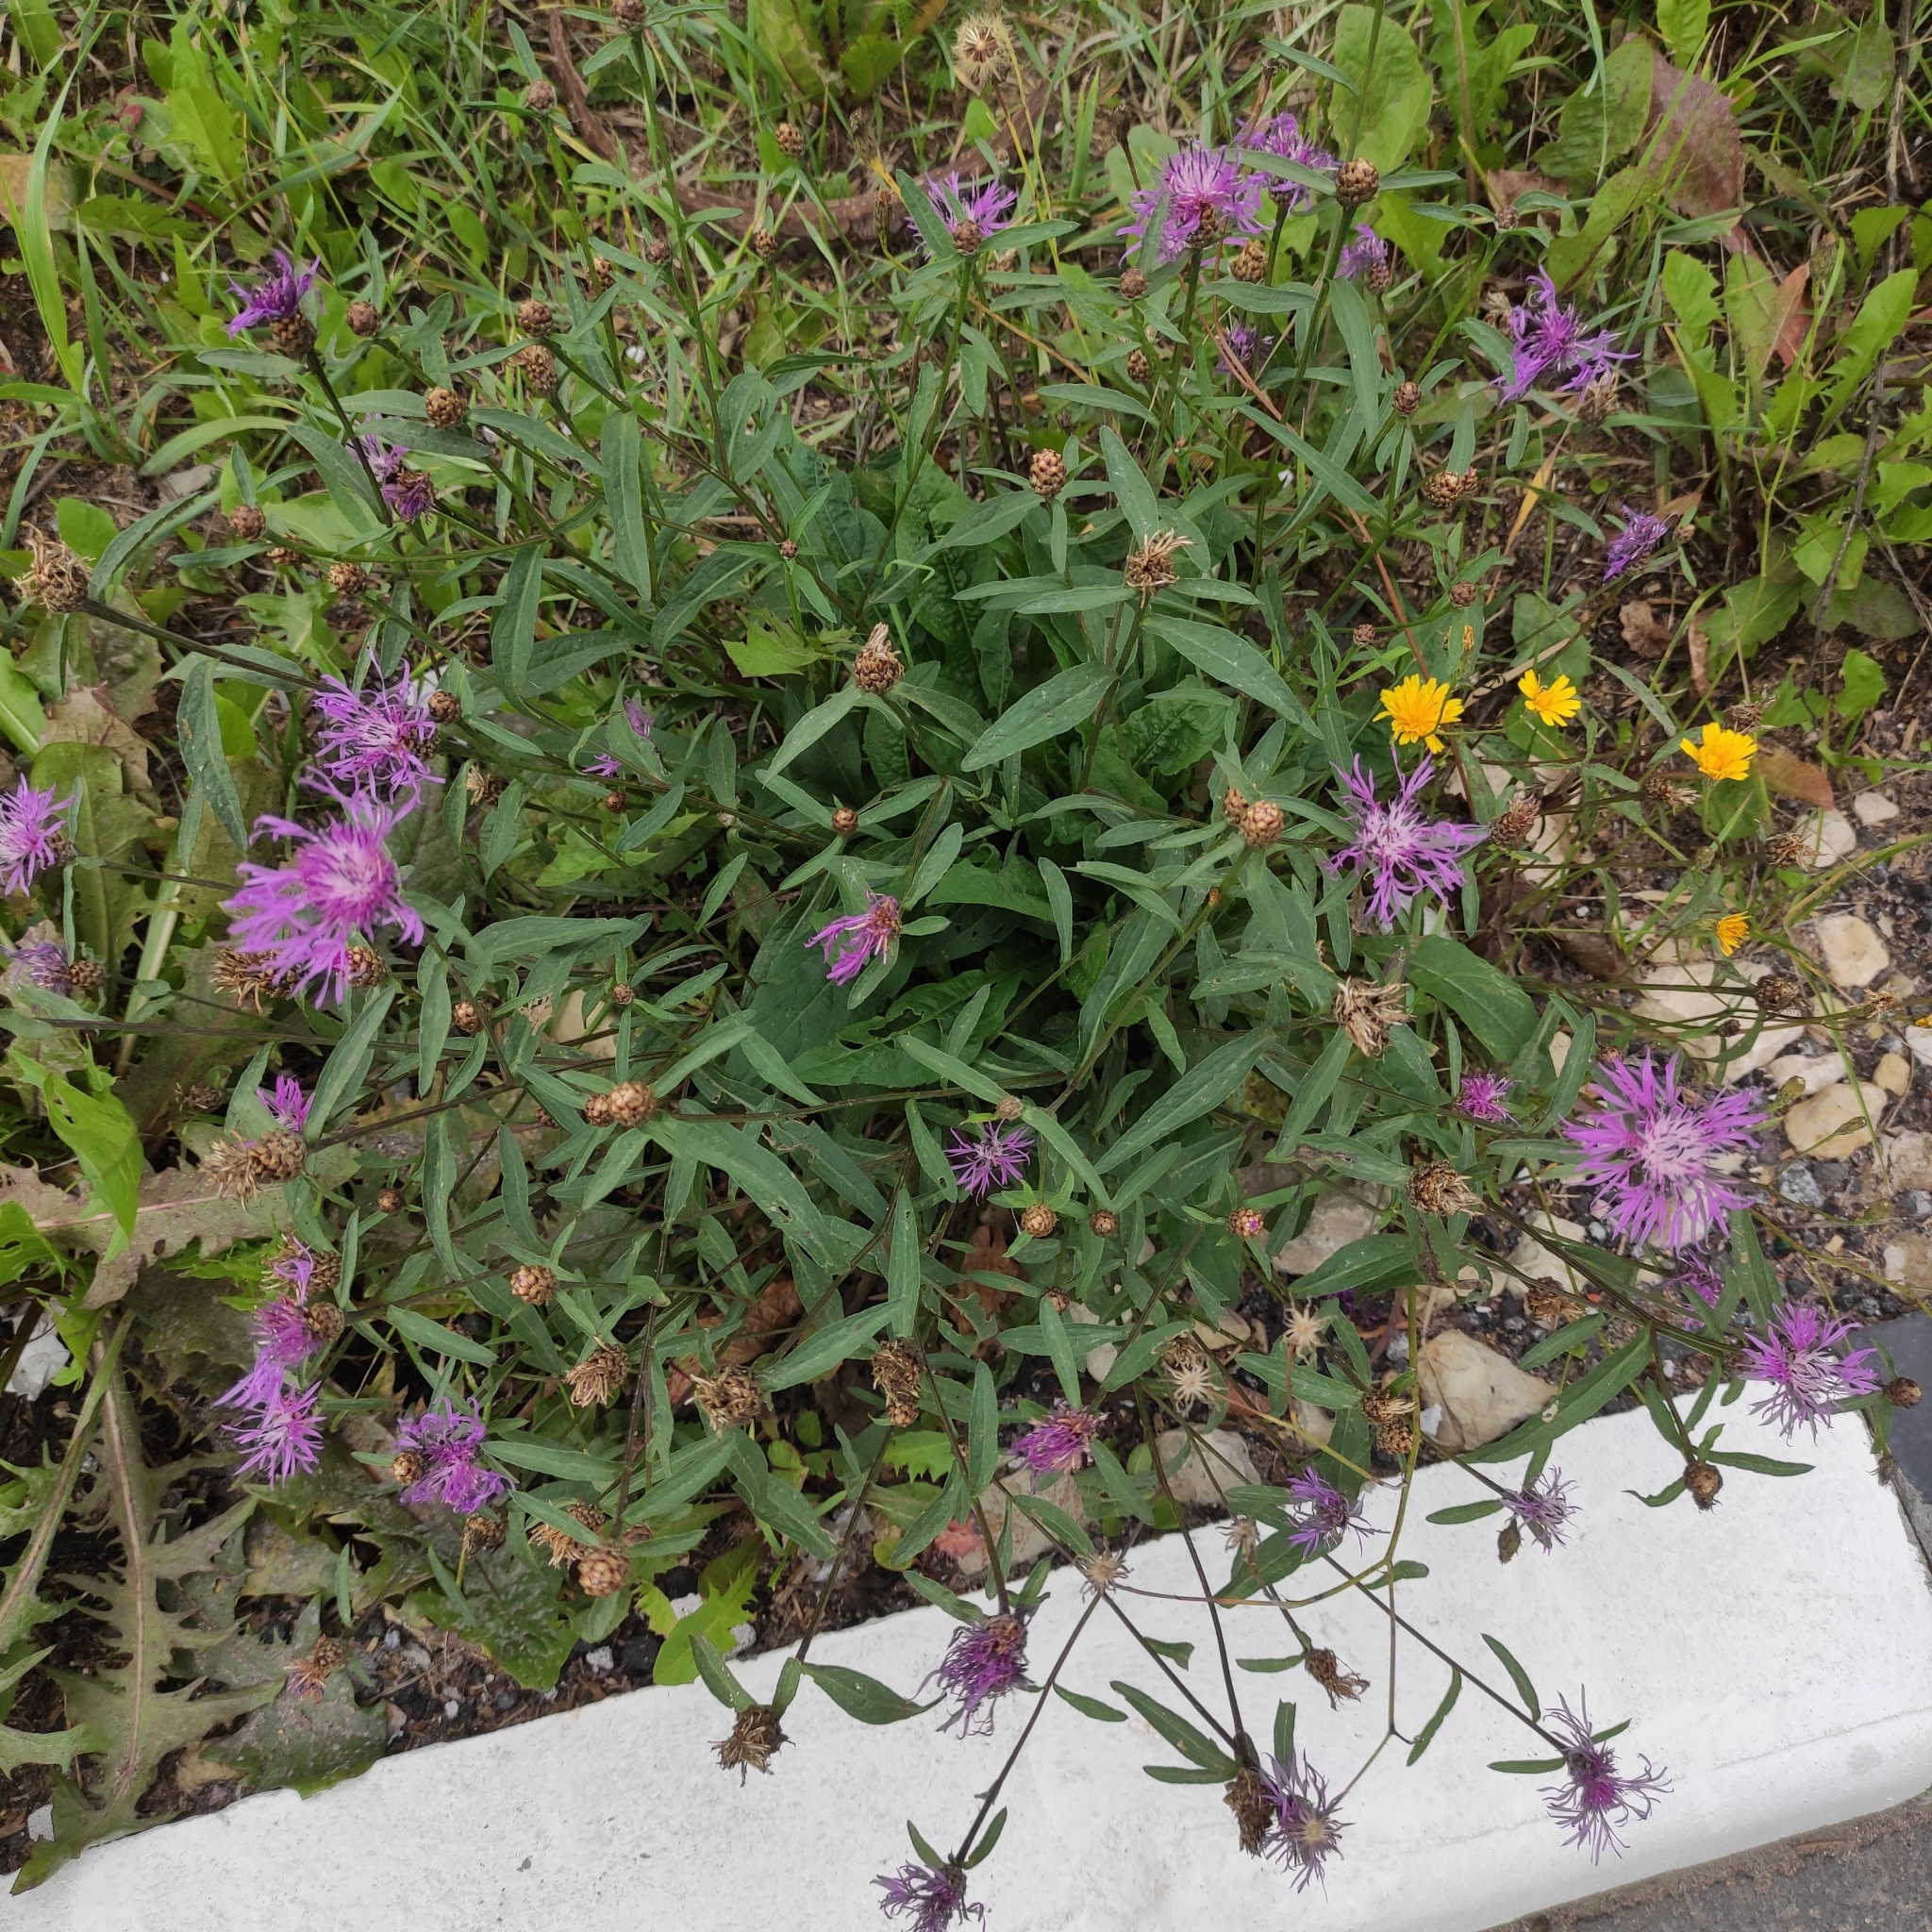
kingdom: Plantae
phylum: Tracheophyta
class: Magnoliopsida
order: Asterales
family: Asteraceae
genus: Centaurea
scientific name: Centaurea jacea
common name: Brown knapweed
